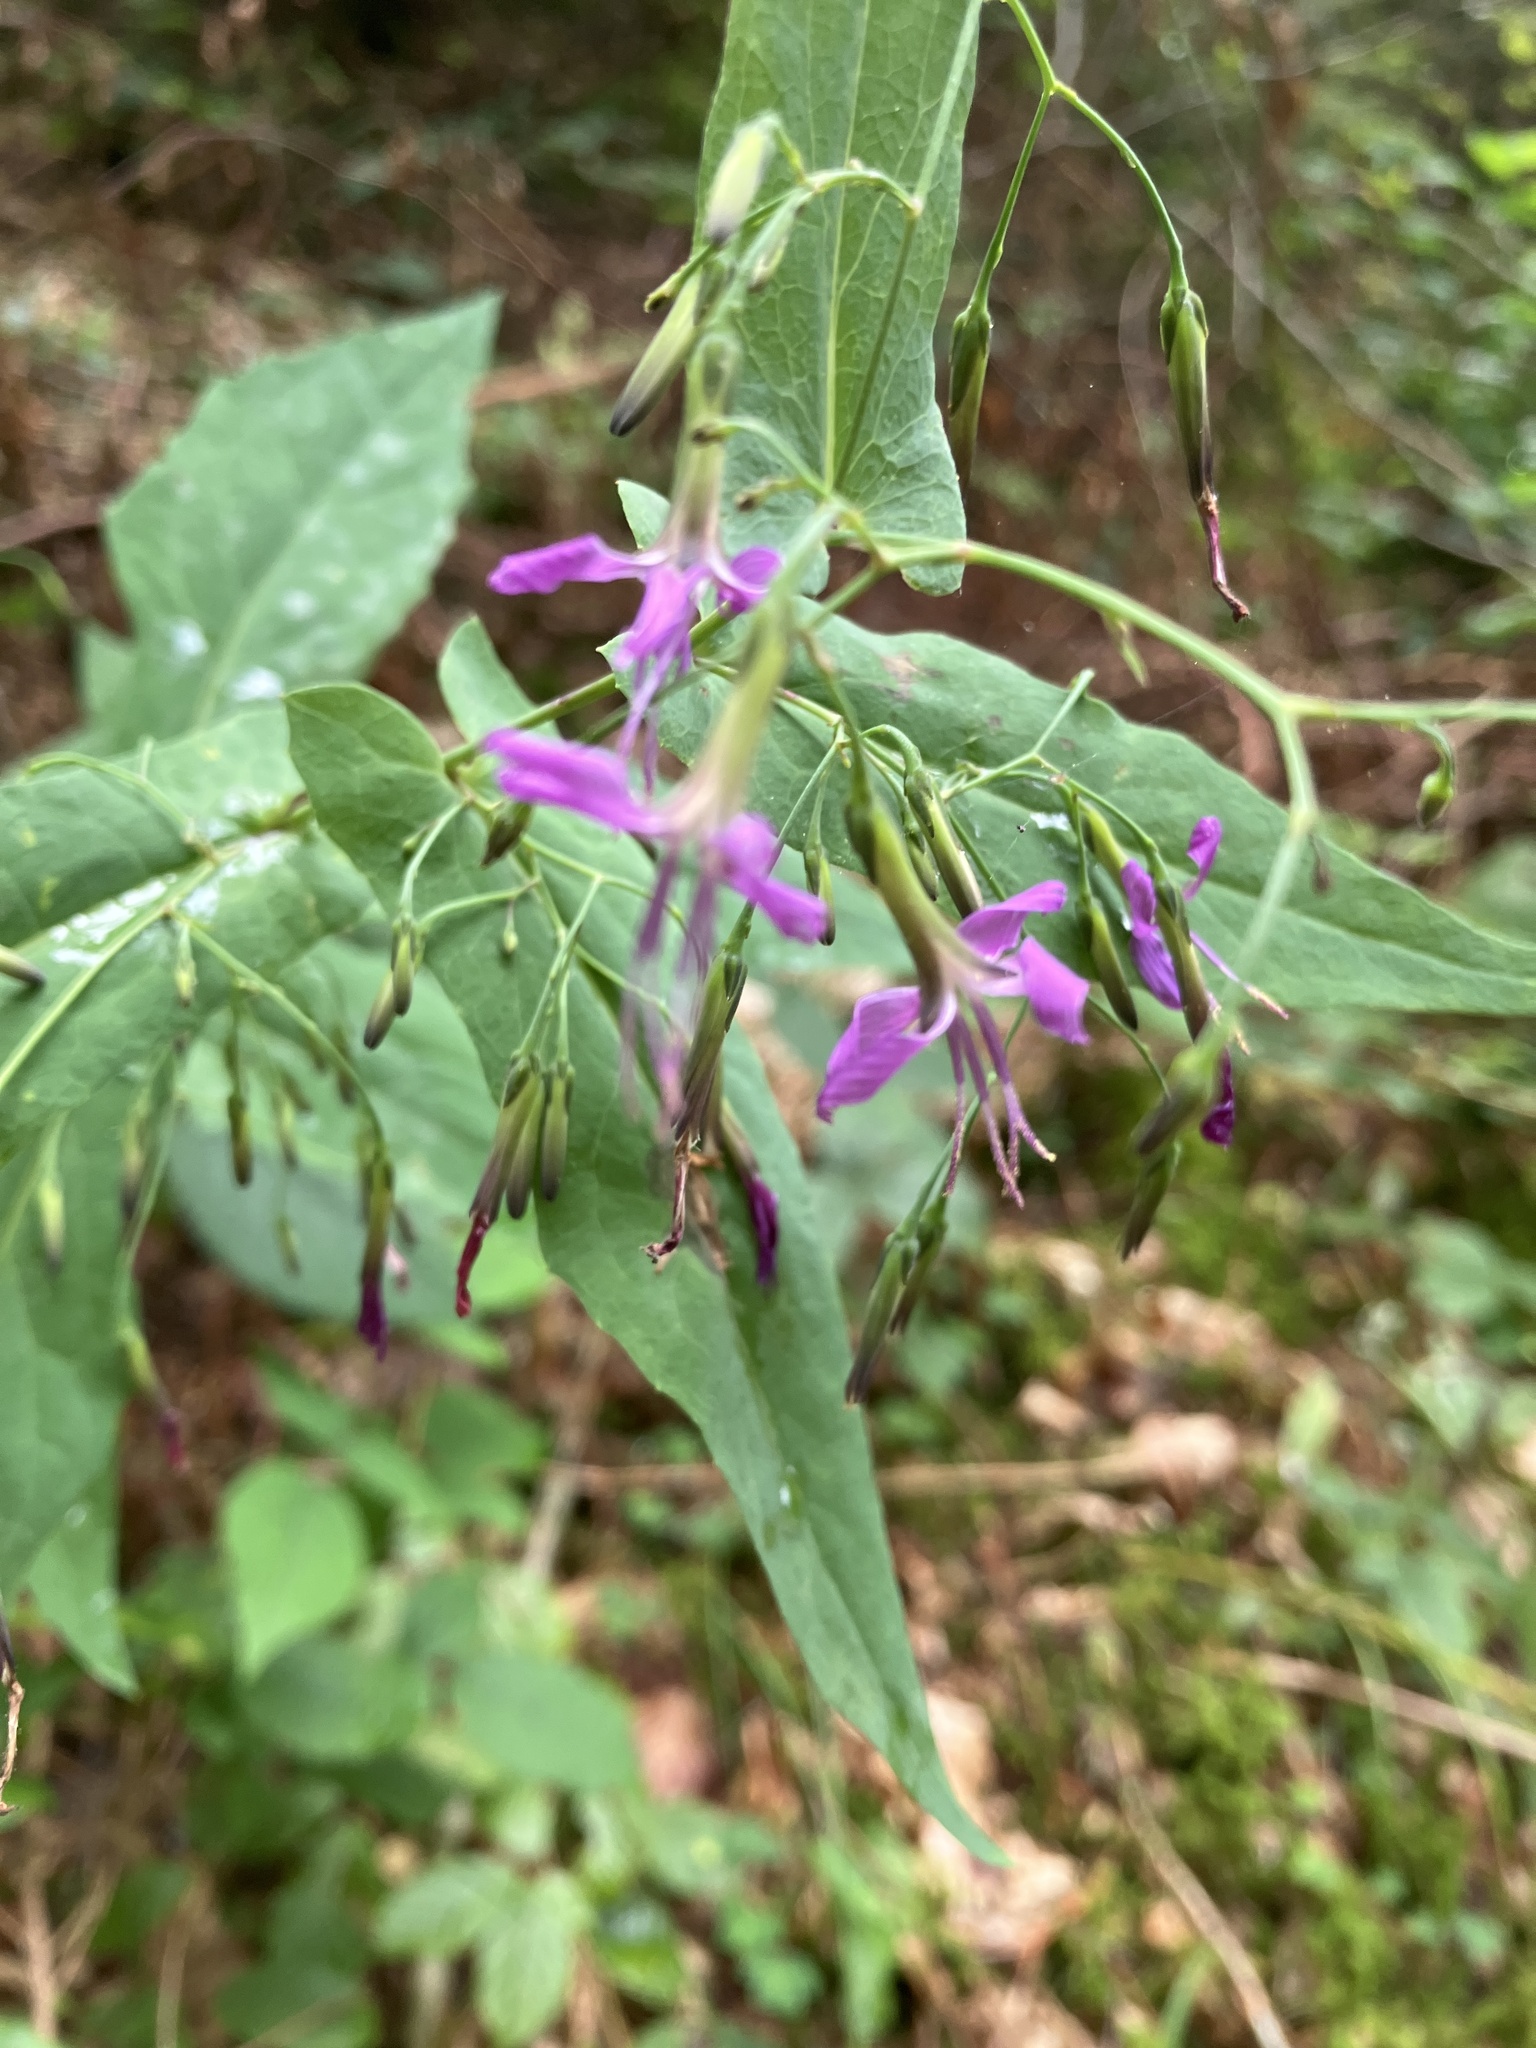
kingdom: Plantae
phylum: Tracheophyta
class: Magnoliopsida
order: Asterales
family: Asteraceae
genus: Prenanthes
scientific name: Prenanthes purpurea
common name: Purple lettuce
